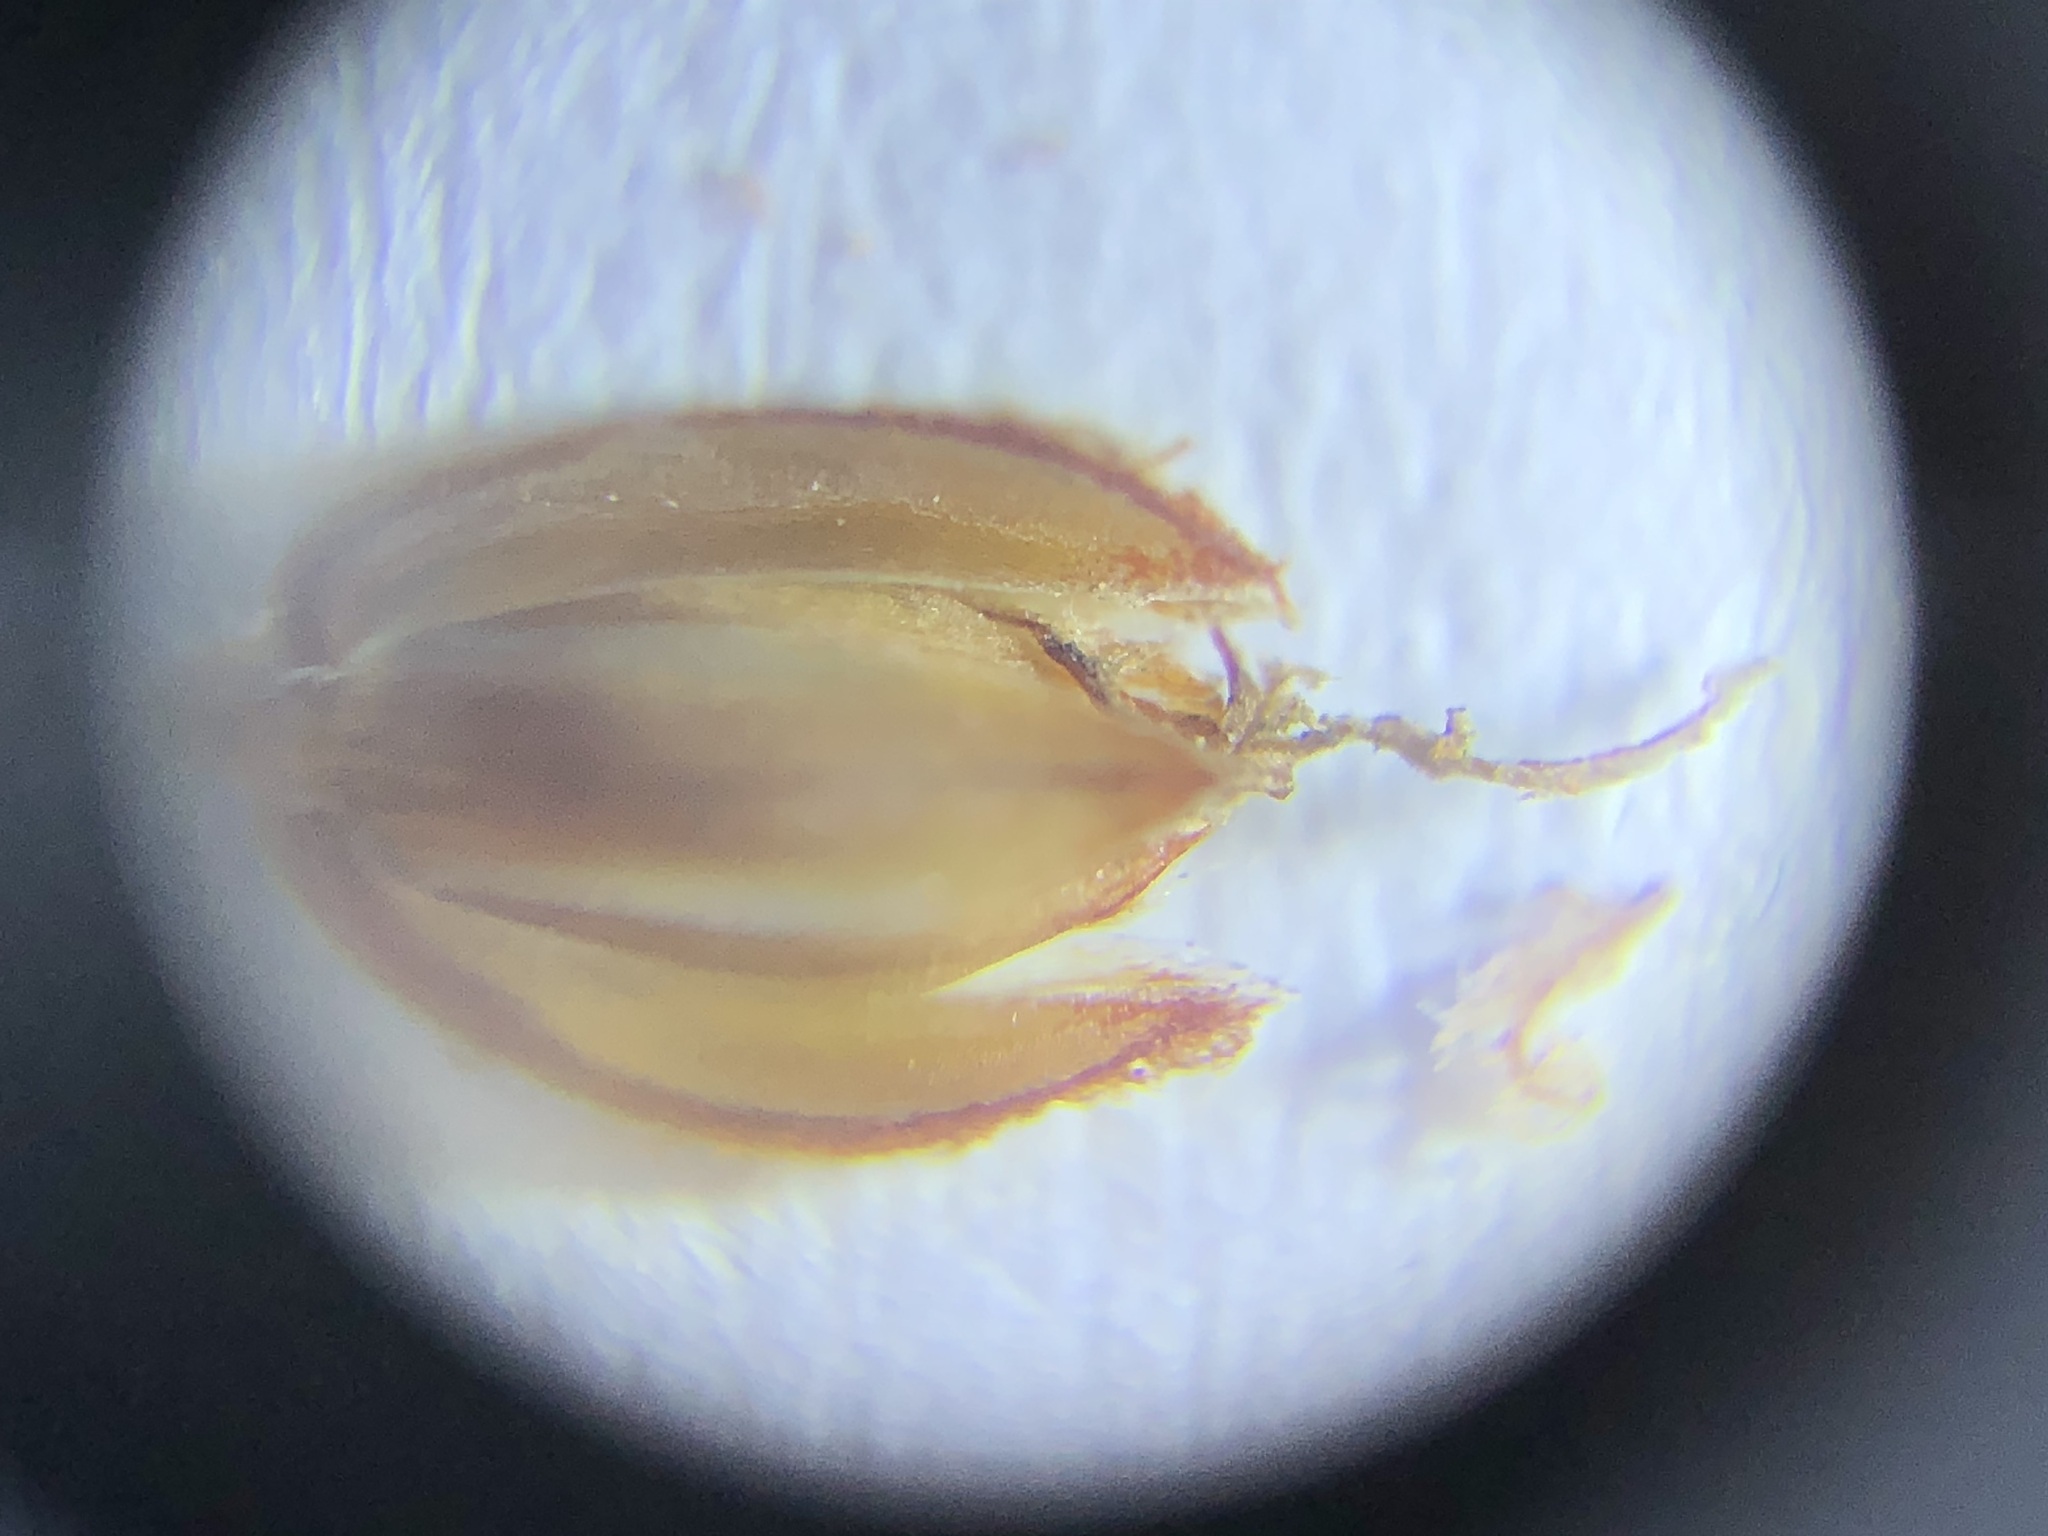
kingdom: Plantae
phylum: Tracheophyta
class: Liliopsida
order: Poales
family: Restionaceae
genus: Restio
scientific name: Restio tetragonus
